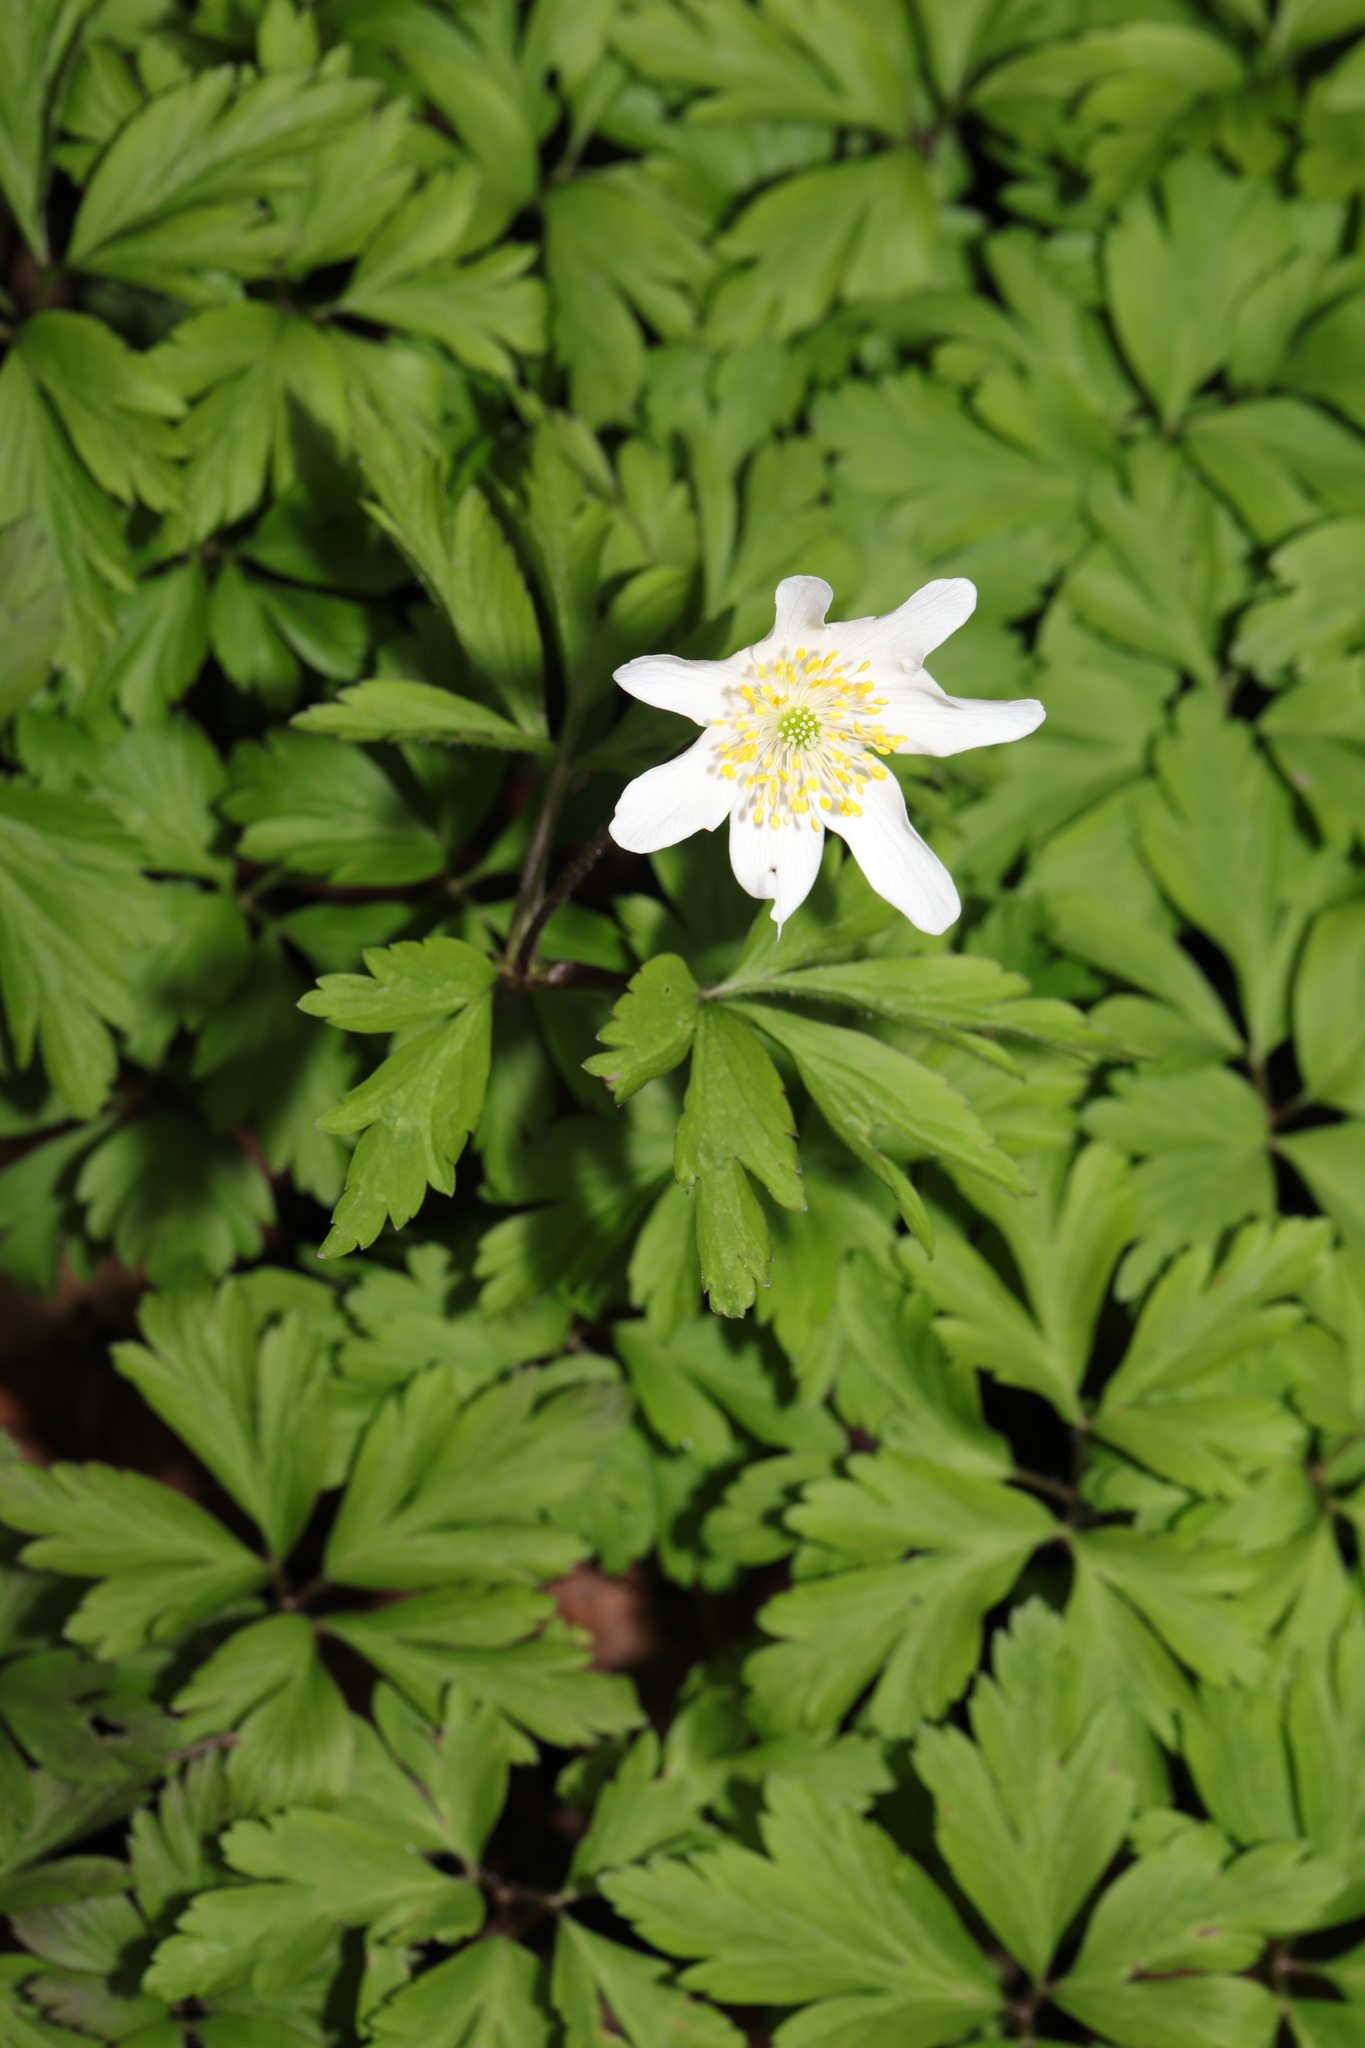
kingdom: Plantae
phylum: Tracheophyta
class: Magnoliopsida
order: Ranunculales
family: Ranunculaceae
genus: Anemone
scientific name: Anemone nemorosa
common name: Wood anemone
